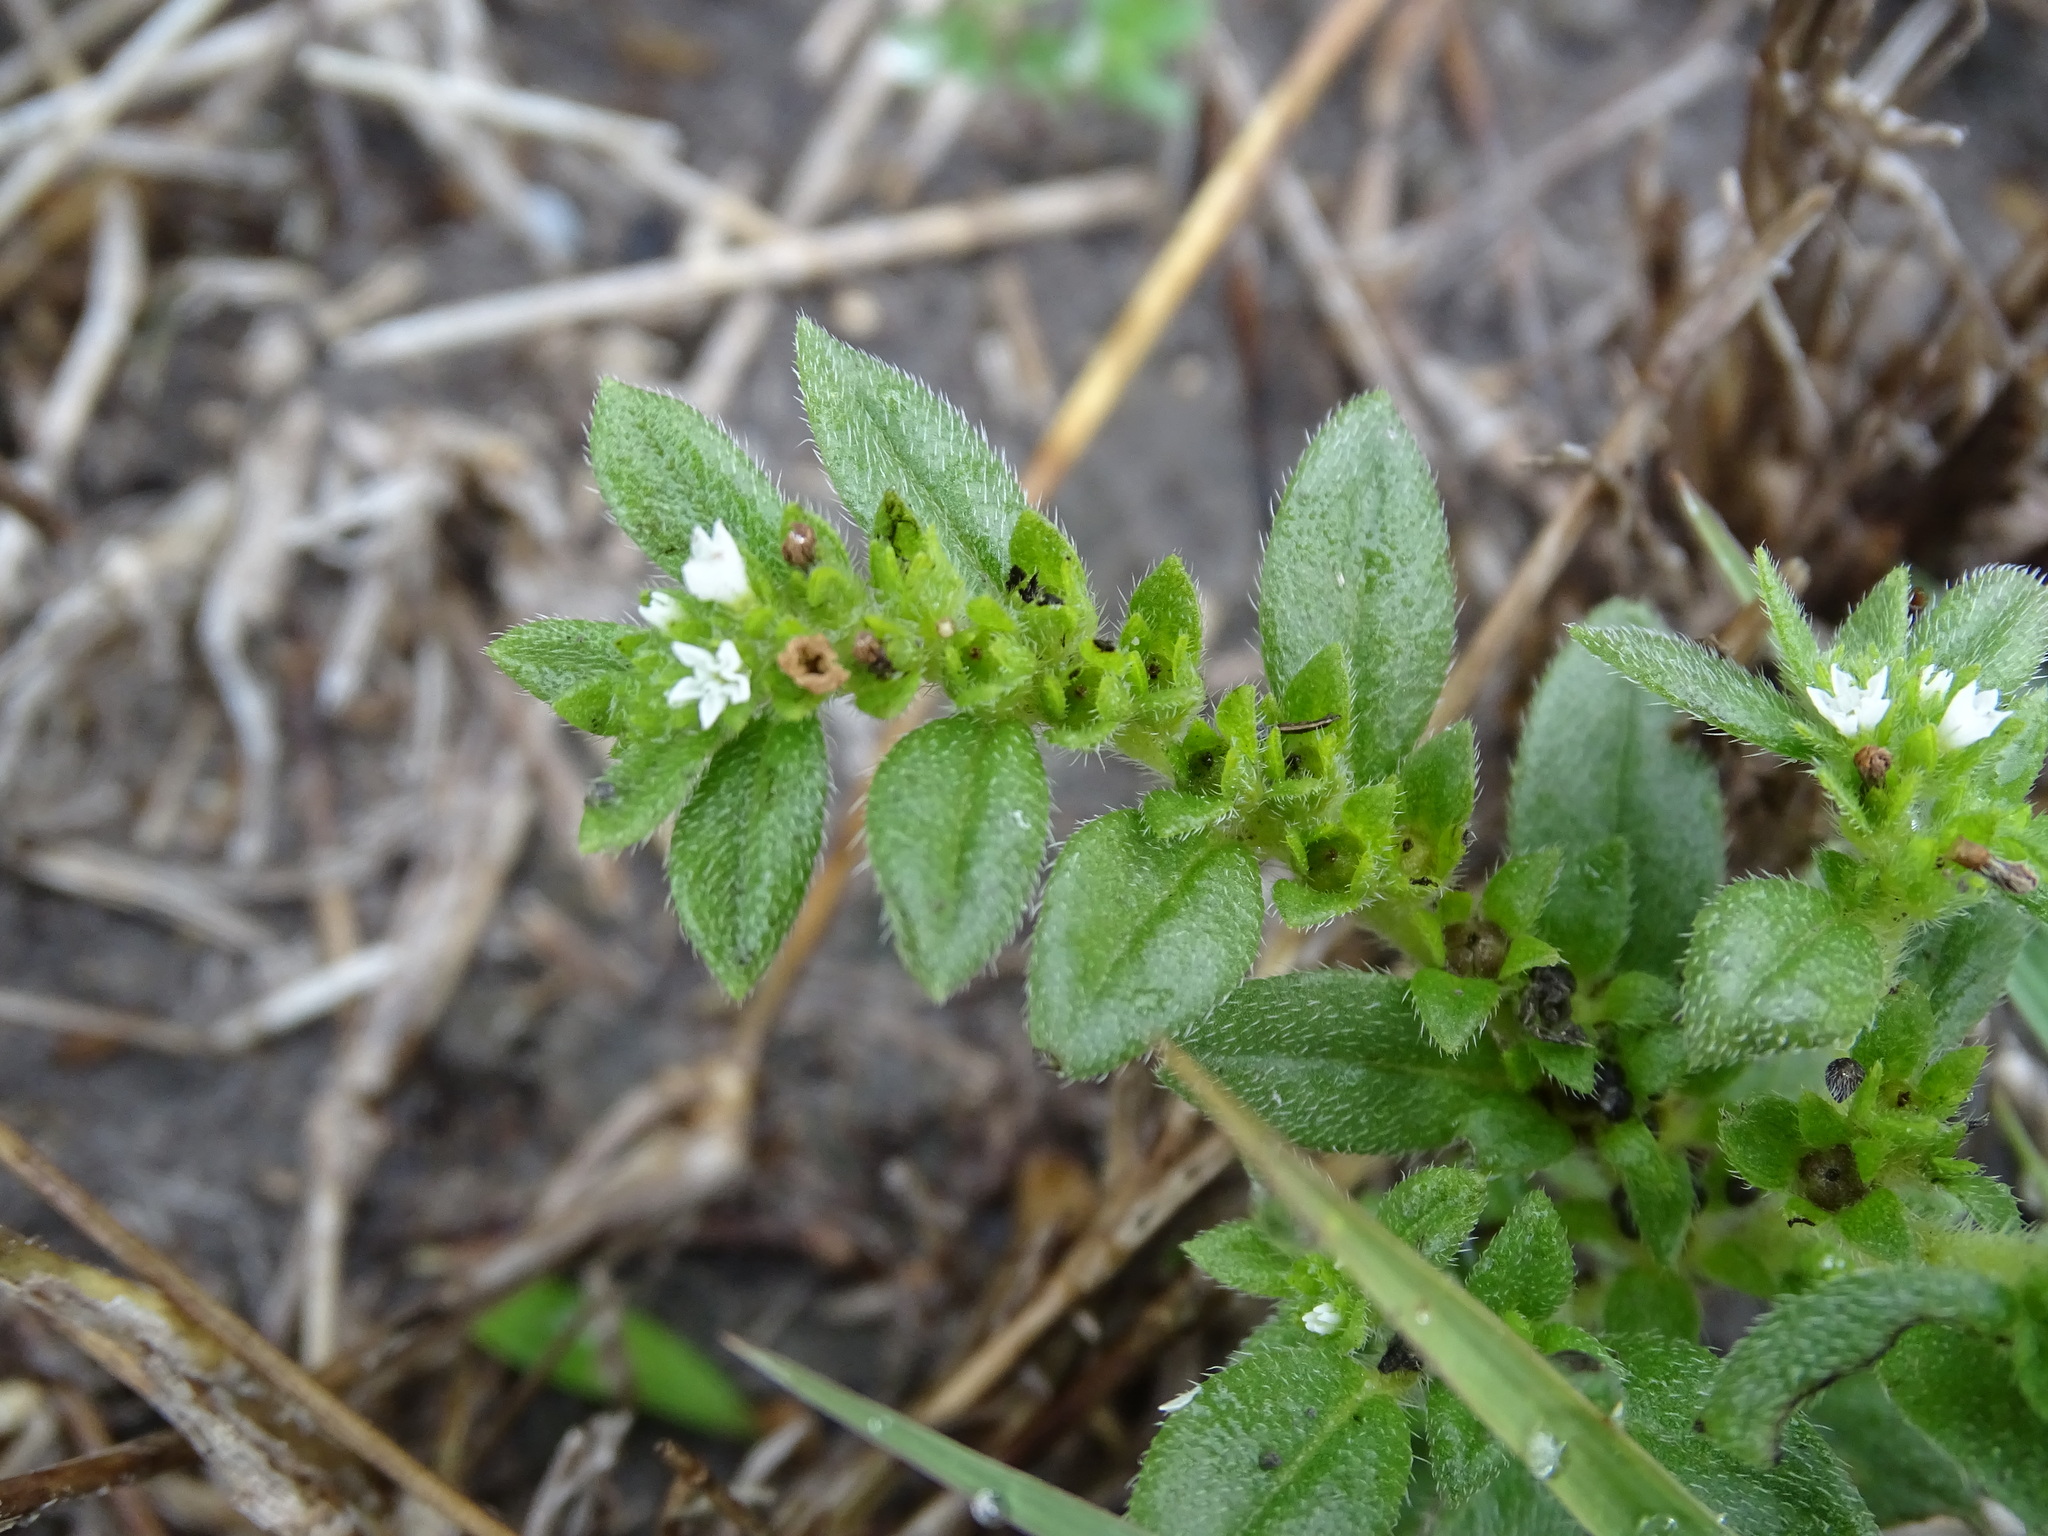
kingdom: Plantae
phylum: Tracheophyta
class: Magnoliopsida
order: Boraginales
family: Heliotropiaceae
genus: Euploca
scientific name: Euploca pringlei
